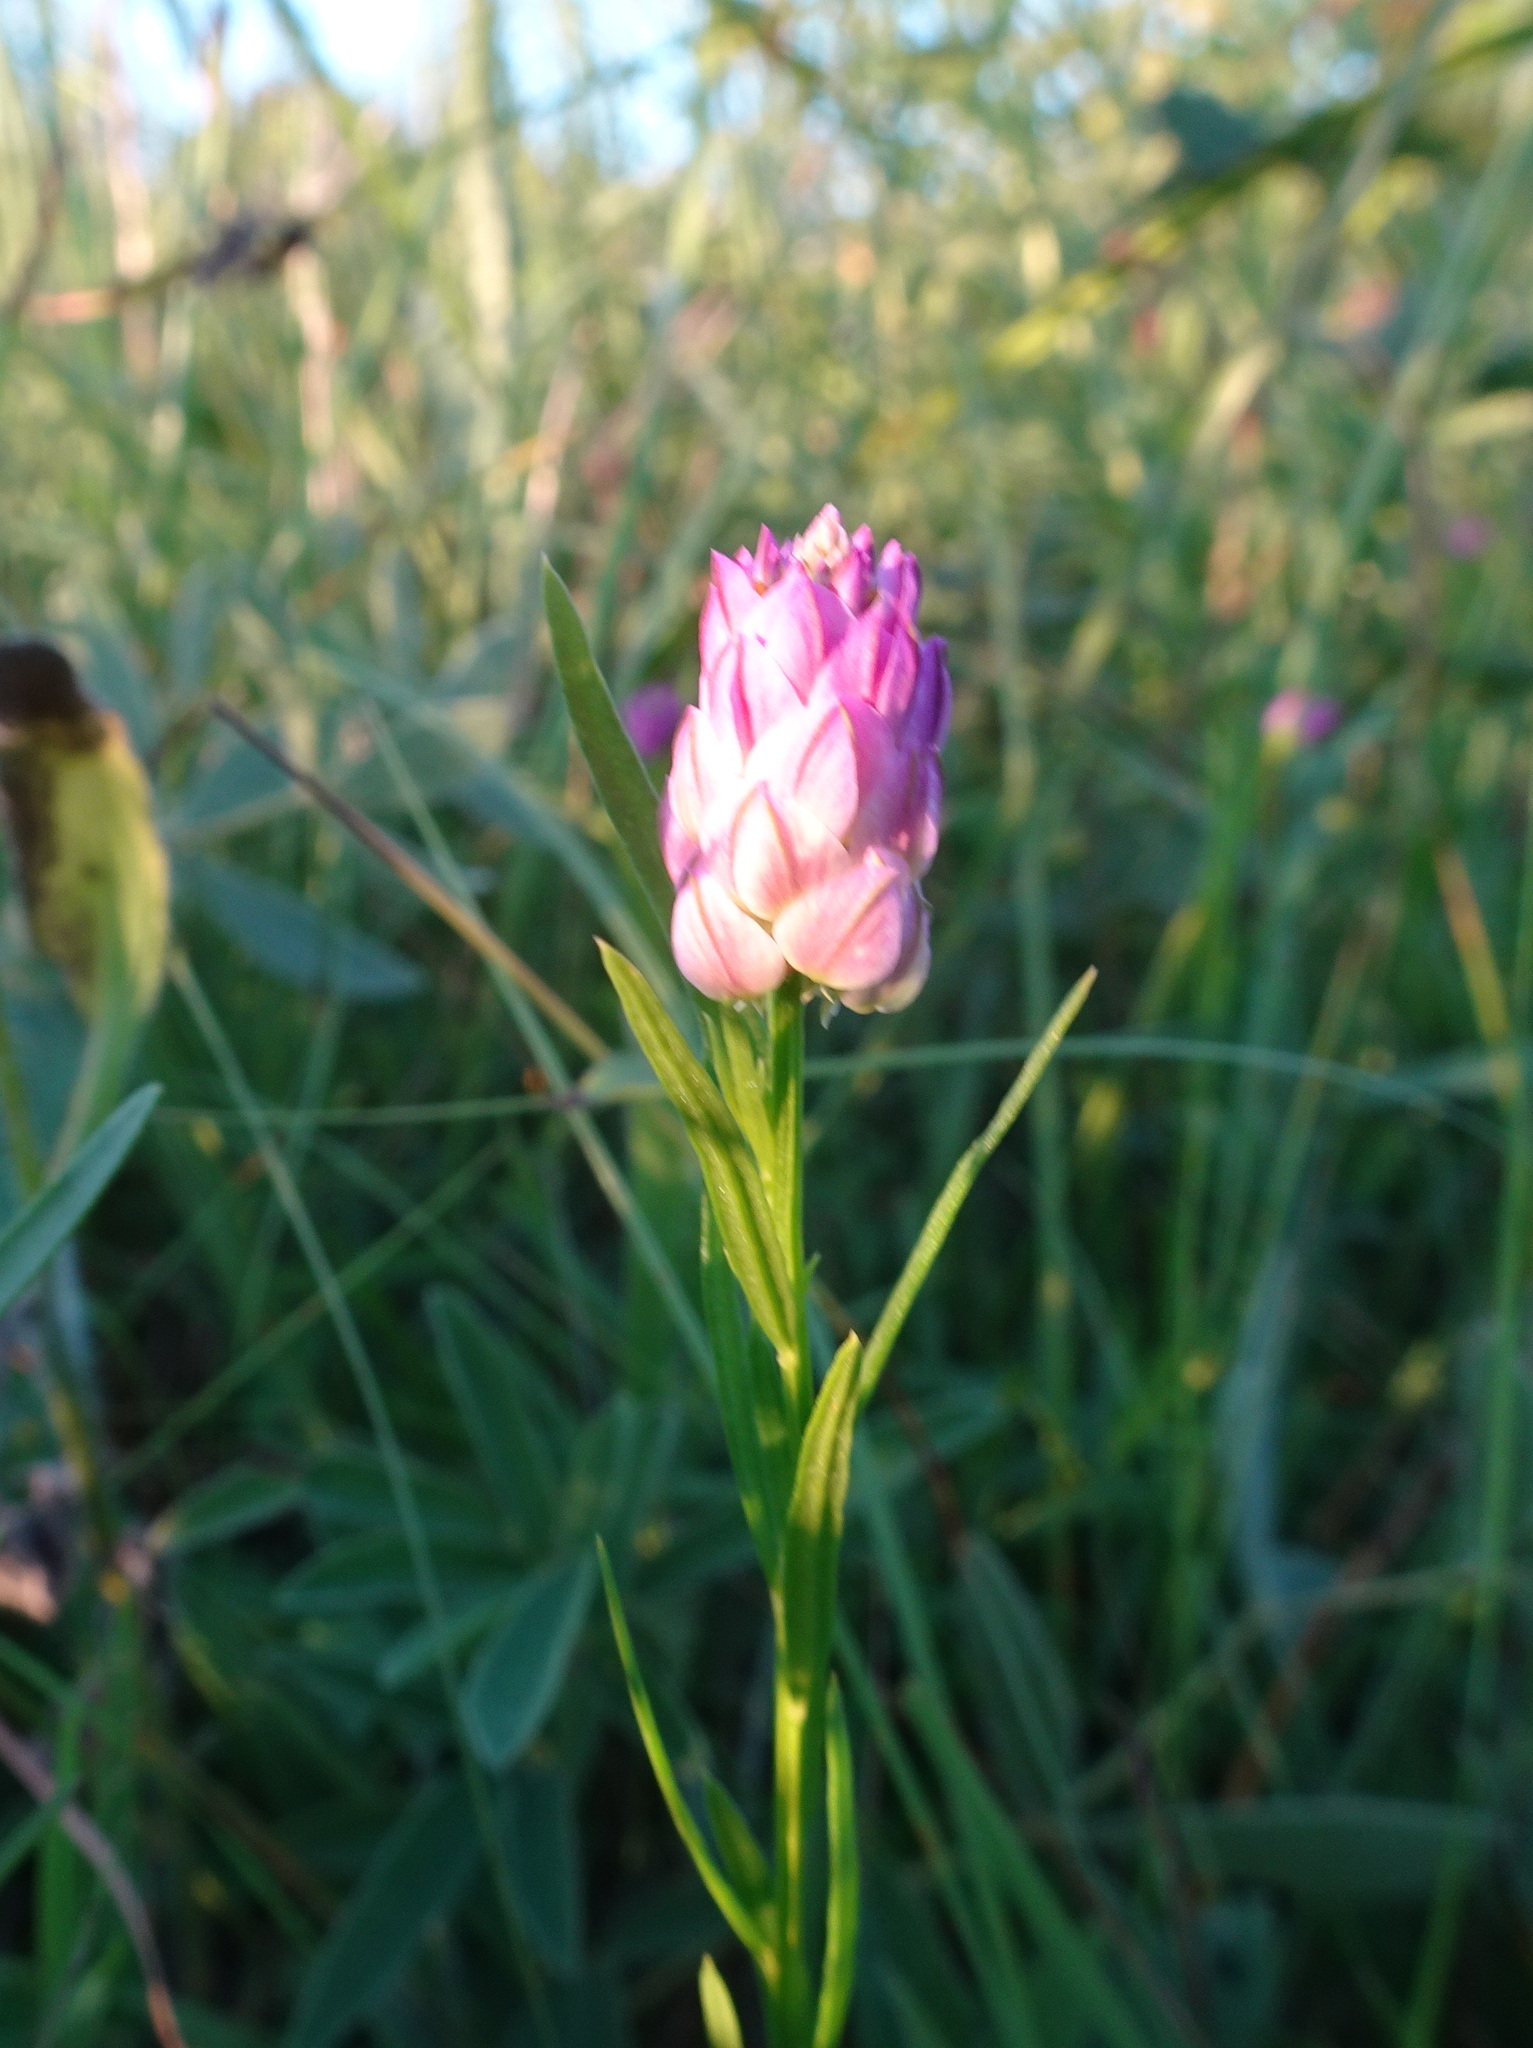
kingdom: Plantae
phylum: Tracheophyta
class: Magnoliopsida
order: Fabales
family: Polygalaceae
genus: Polygala
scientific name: Polygala sanguinea
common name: Blood milkwort
